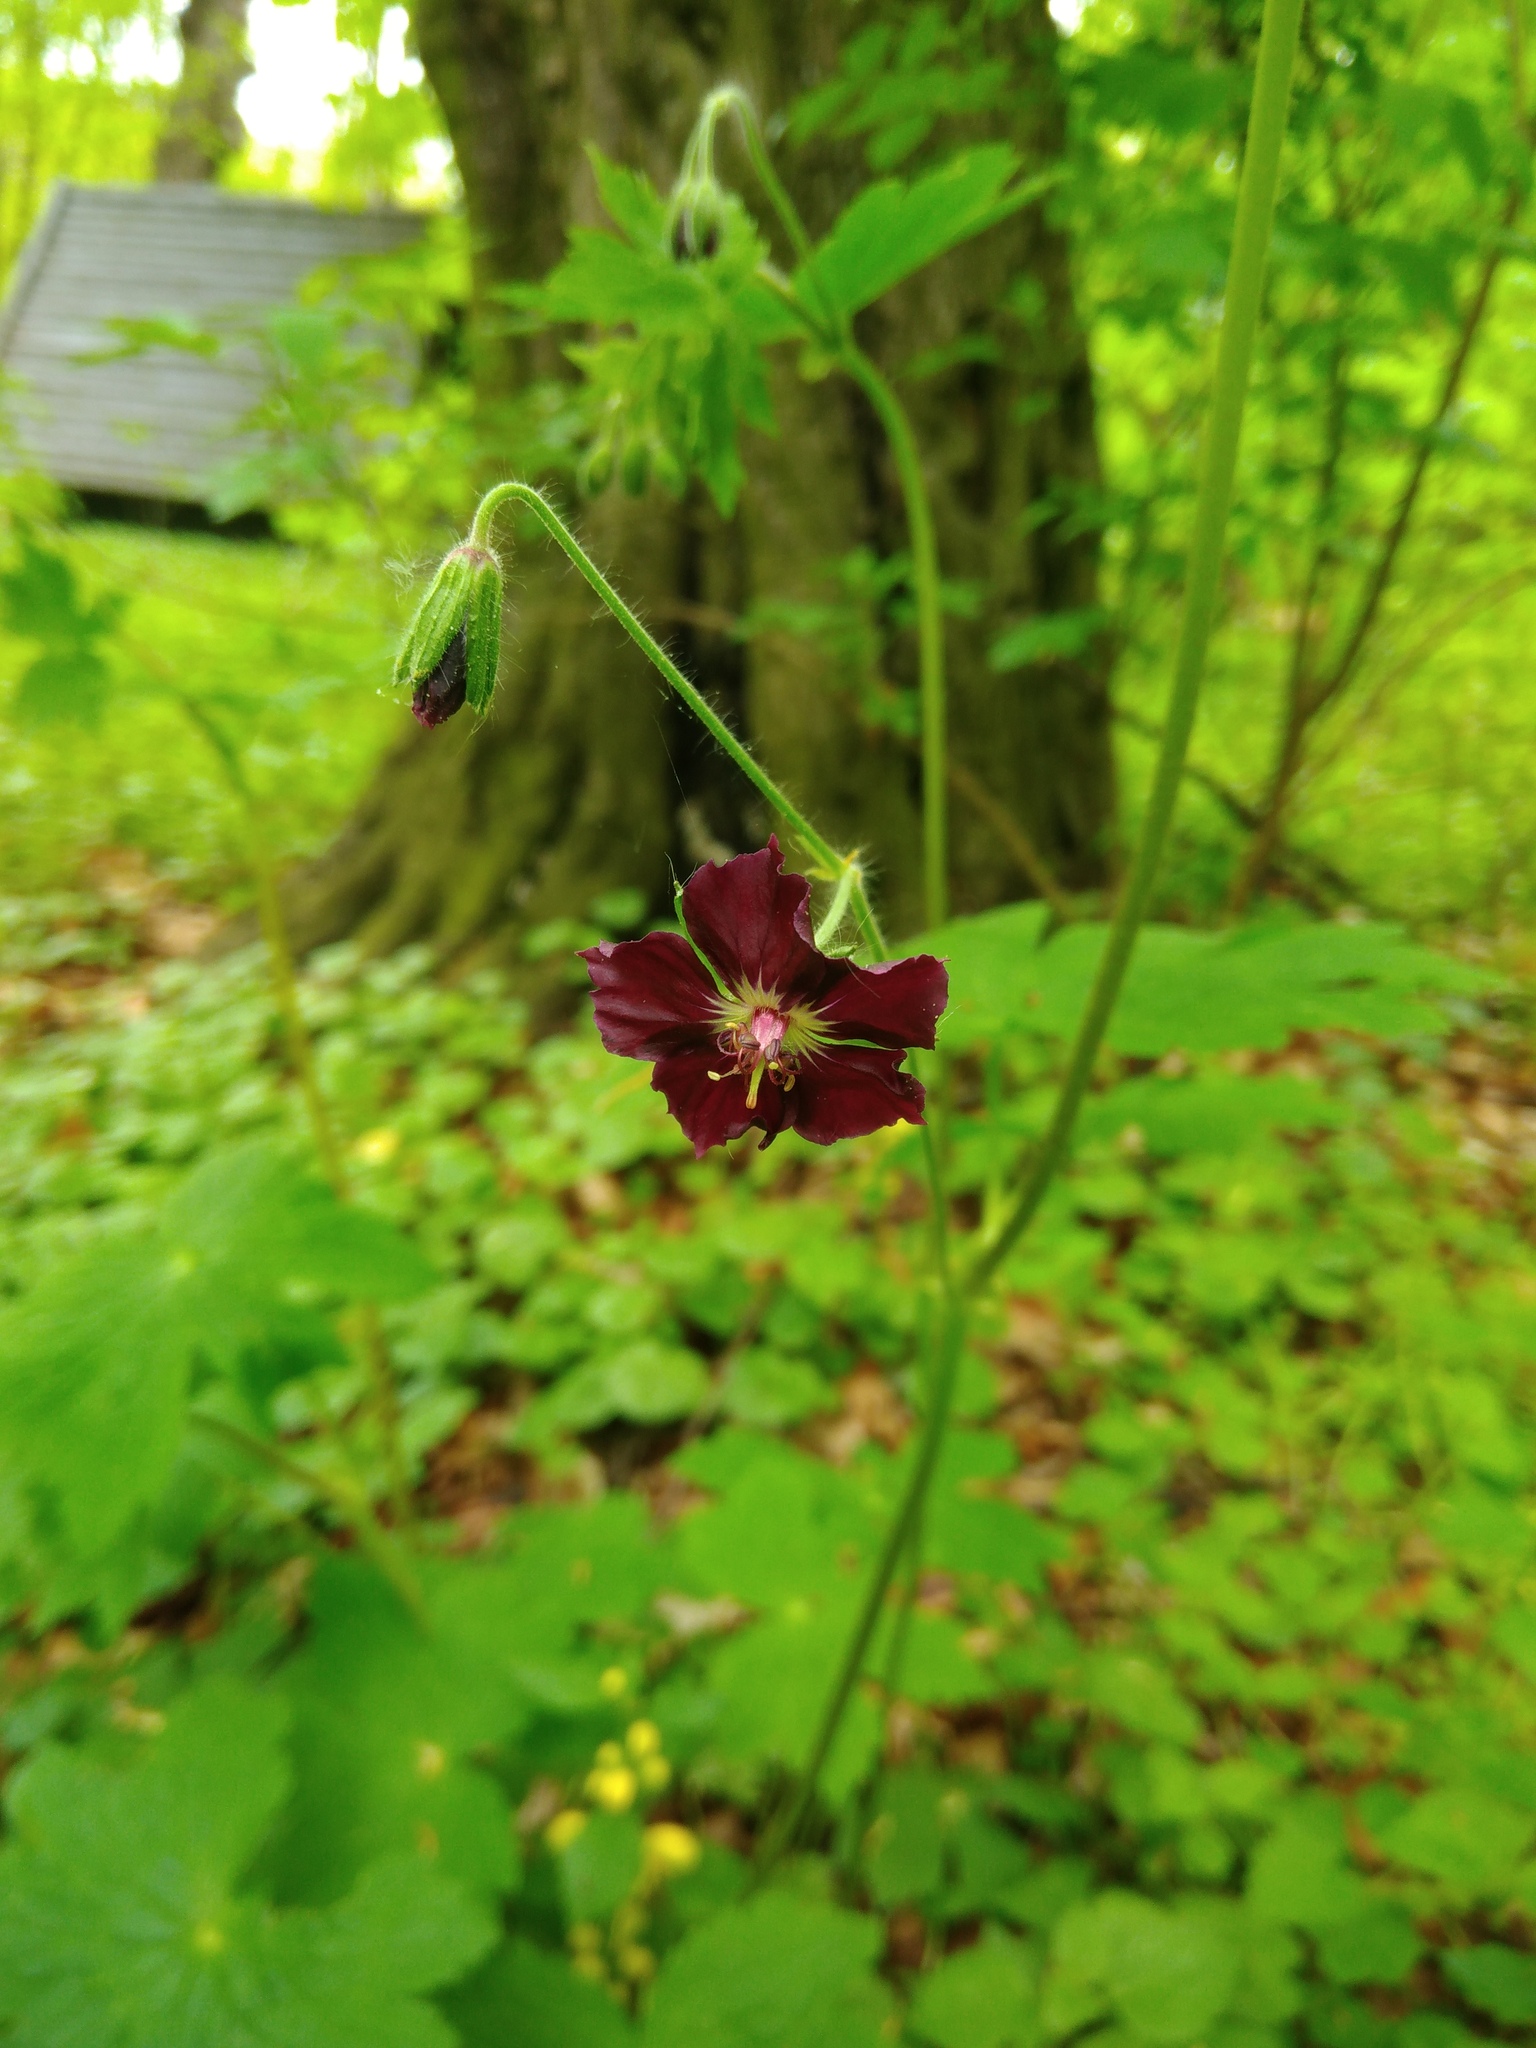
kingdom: Plantae
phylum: Tracheophyta
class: Magnoliopsida
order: Geraniales
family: Geraniaceae
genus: Geranium
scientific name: Geranium phaeum
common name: Dusky crane's-bill
